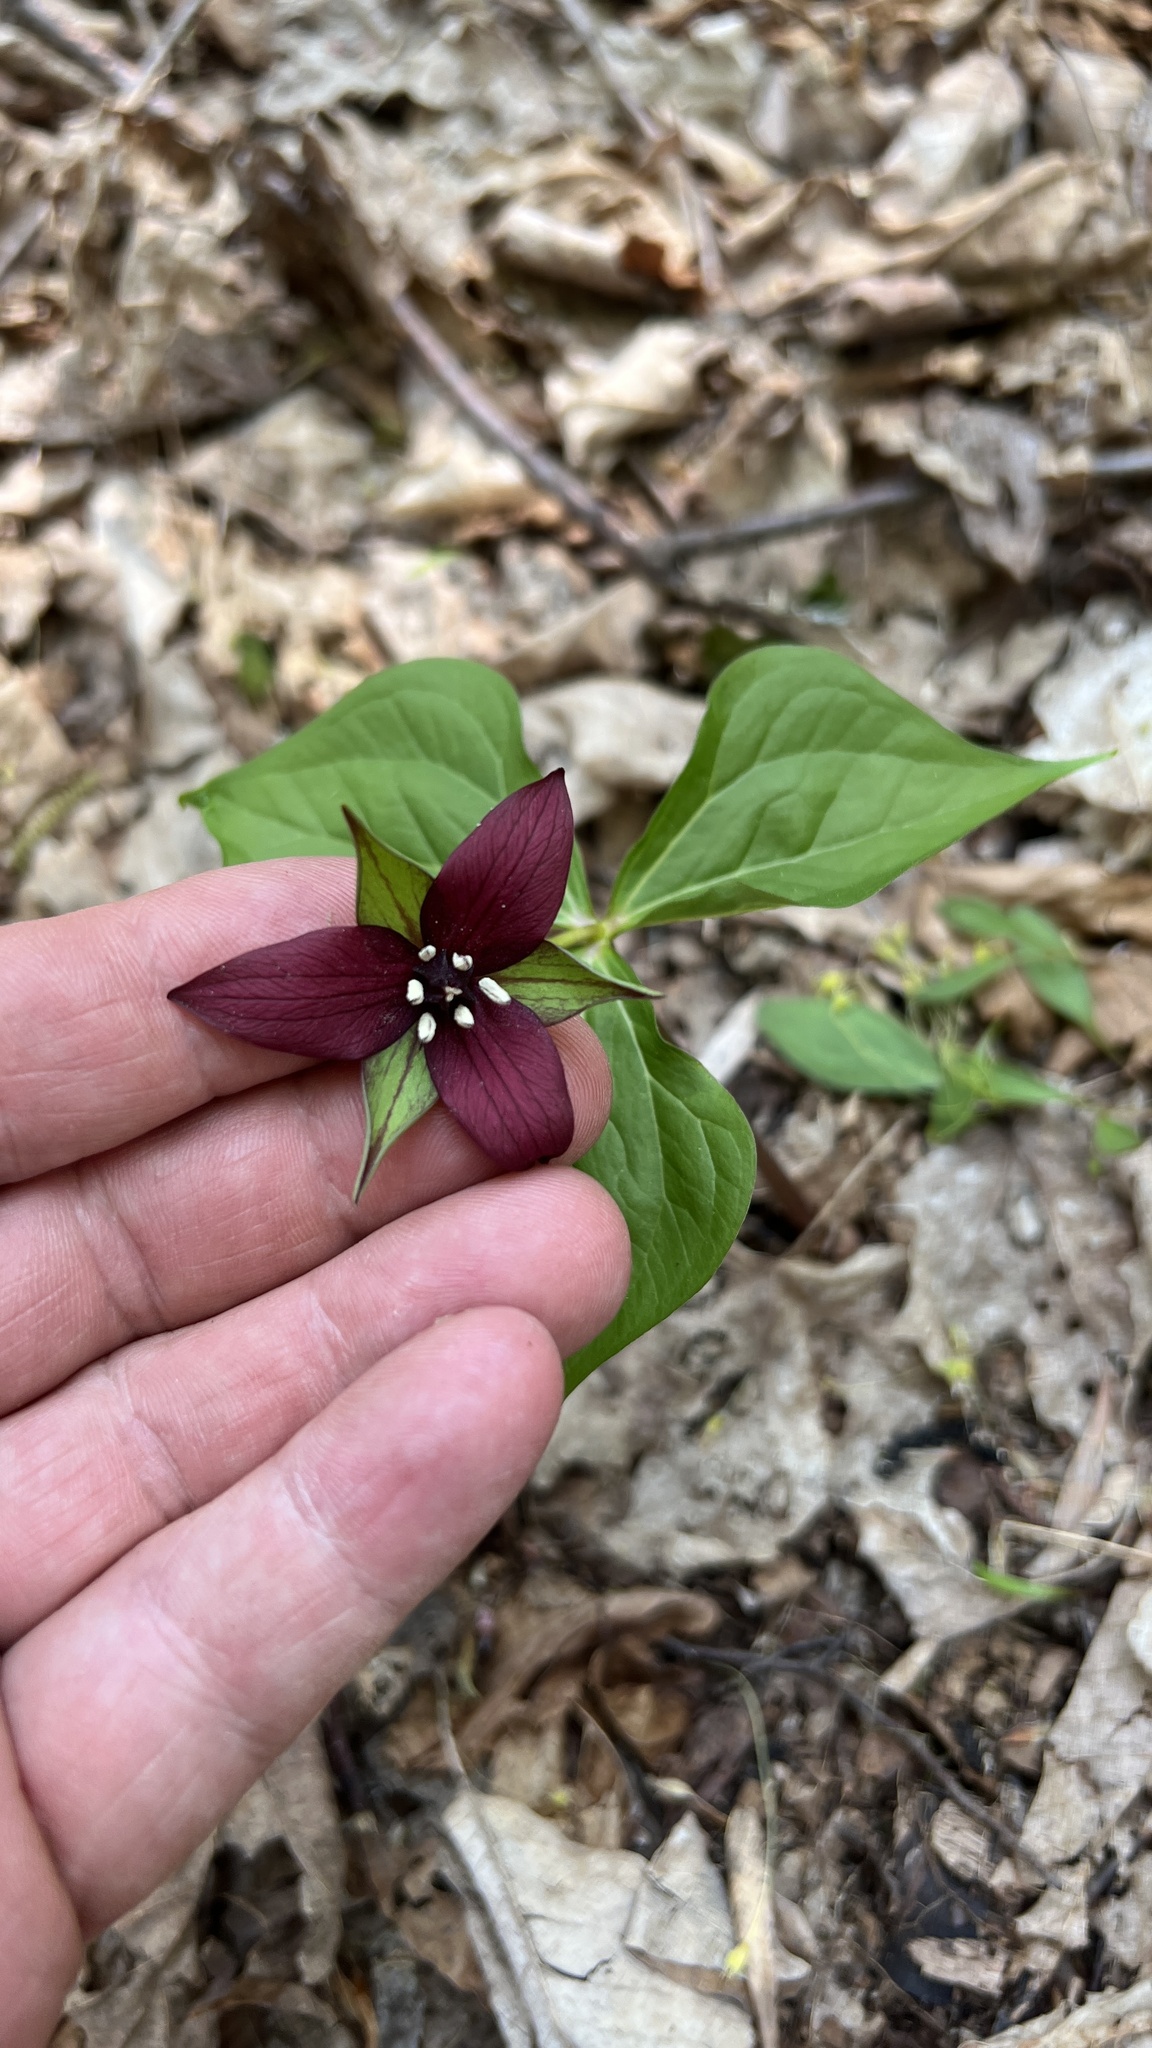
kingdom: Plantae
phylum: Tracheophyta
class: Liliopsida
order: Liliales
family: Melanthiaceae
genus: Trillium
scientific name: Trillium erectum
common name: Purple trillium
